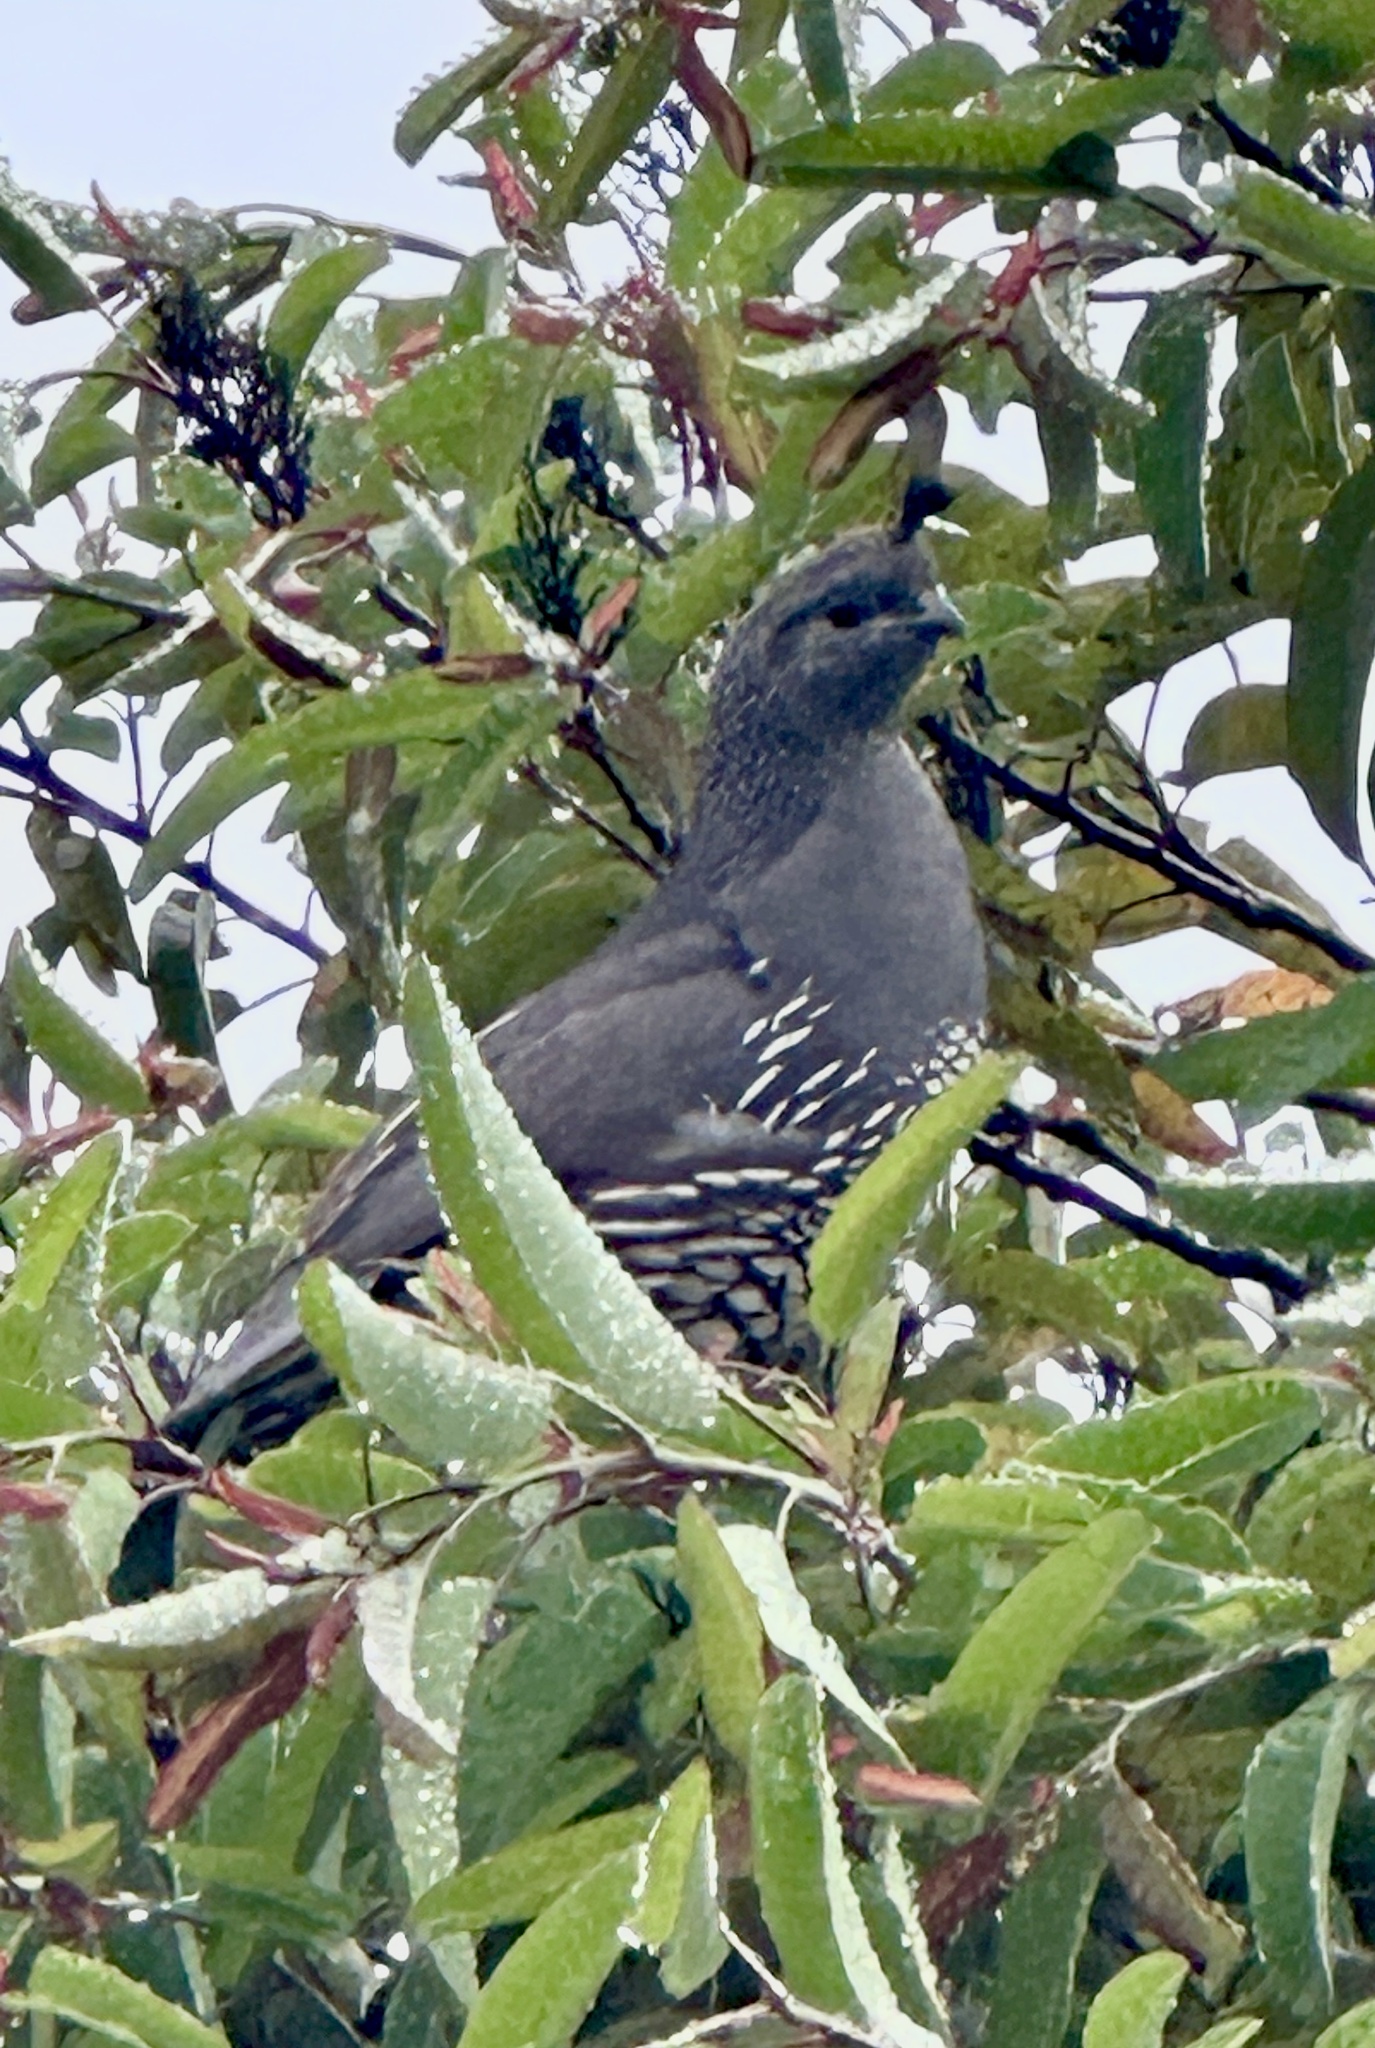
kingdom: Animalia
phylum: Chordata
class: Aves
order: Galliformes
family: Odontophoridae
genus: Callipepla
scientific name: Callipepla californica
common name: California quail
